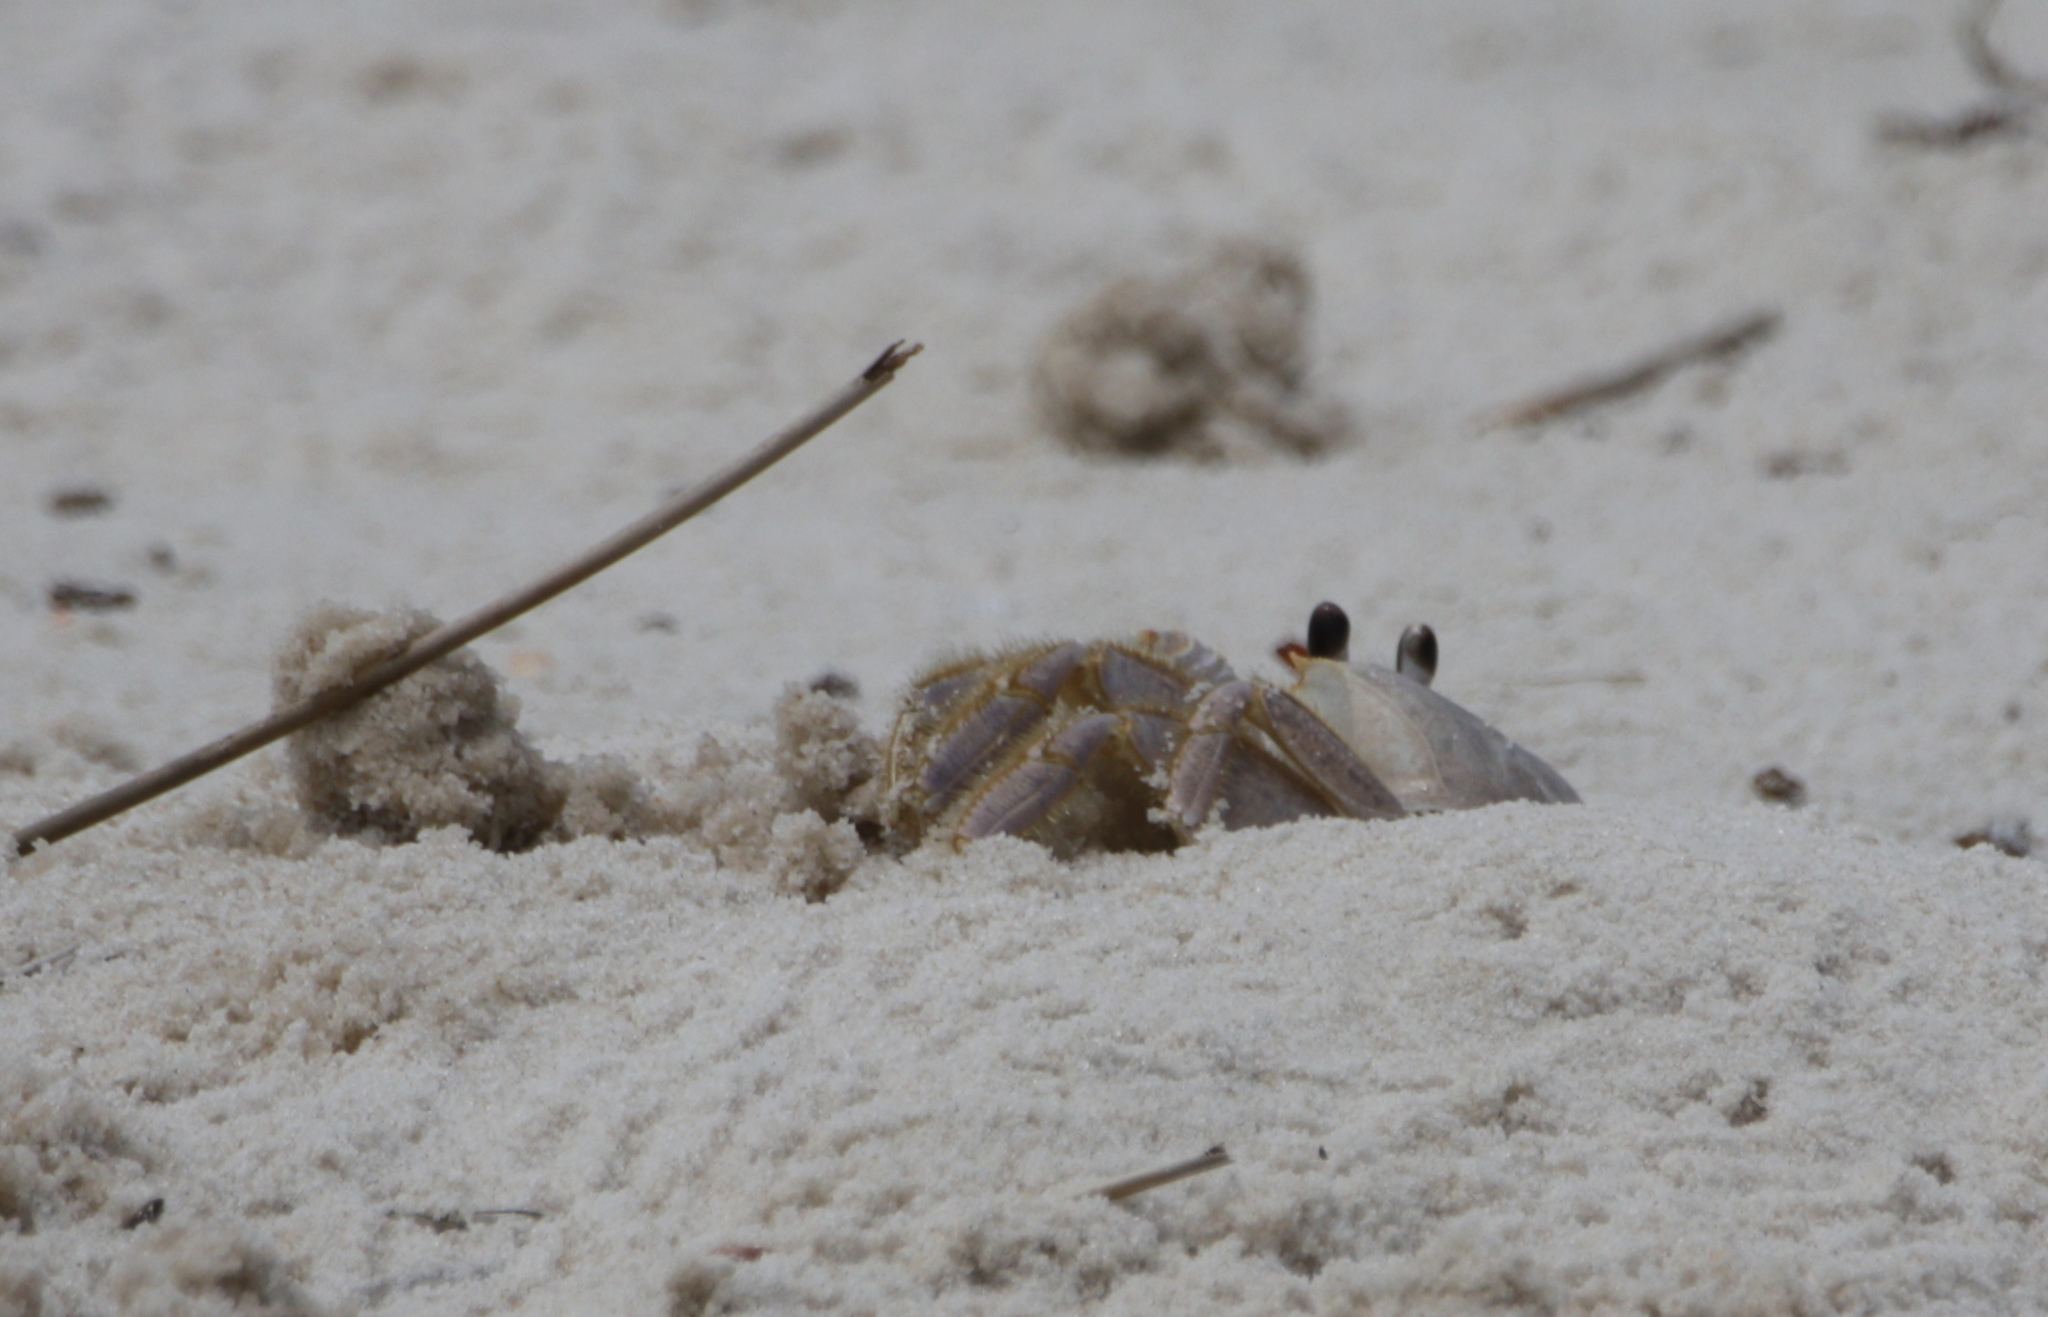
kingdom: Animalia
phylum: Arthropoda
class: Malacostraca
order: Decapoda
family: Ocypodidae
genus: Ocypode
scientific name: Ocypode quadrata
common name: Ghost crab
